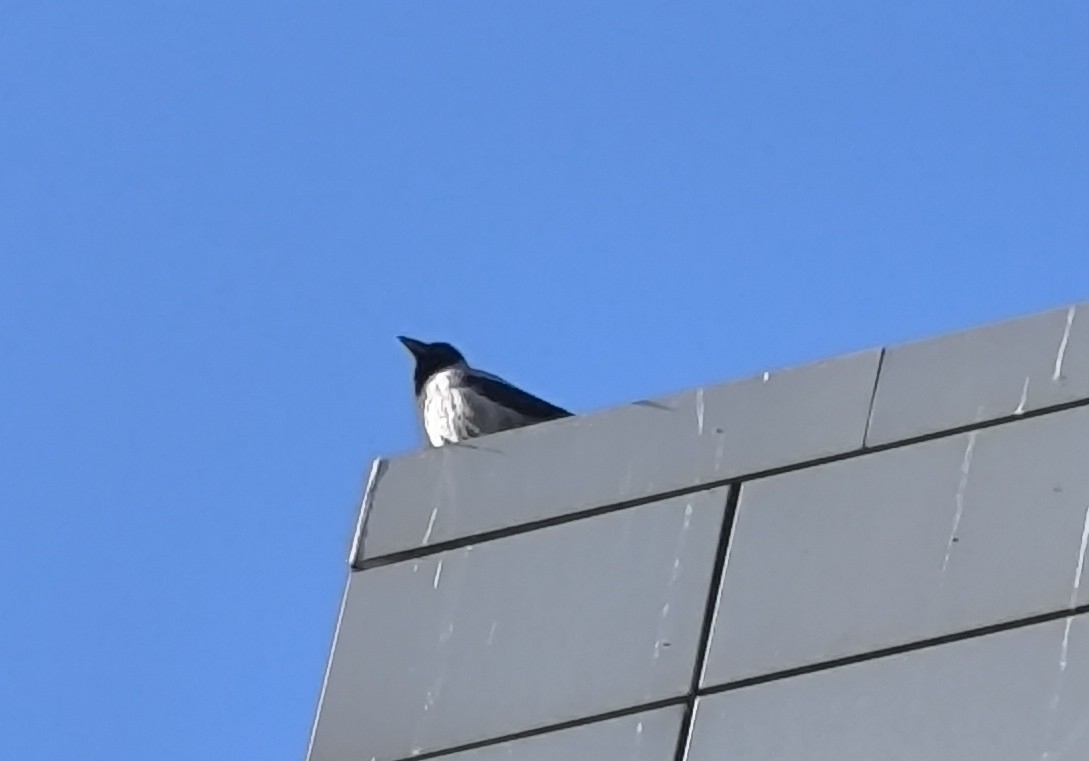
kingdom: Animalia
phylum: Chordata
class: Aves
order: Passeriformes
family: Corvidae
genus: Corvus
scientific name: Corvus cornix
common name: Hooded crow
